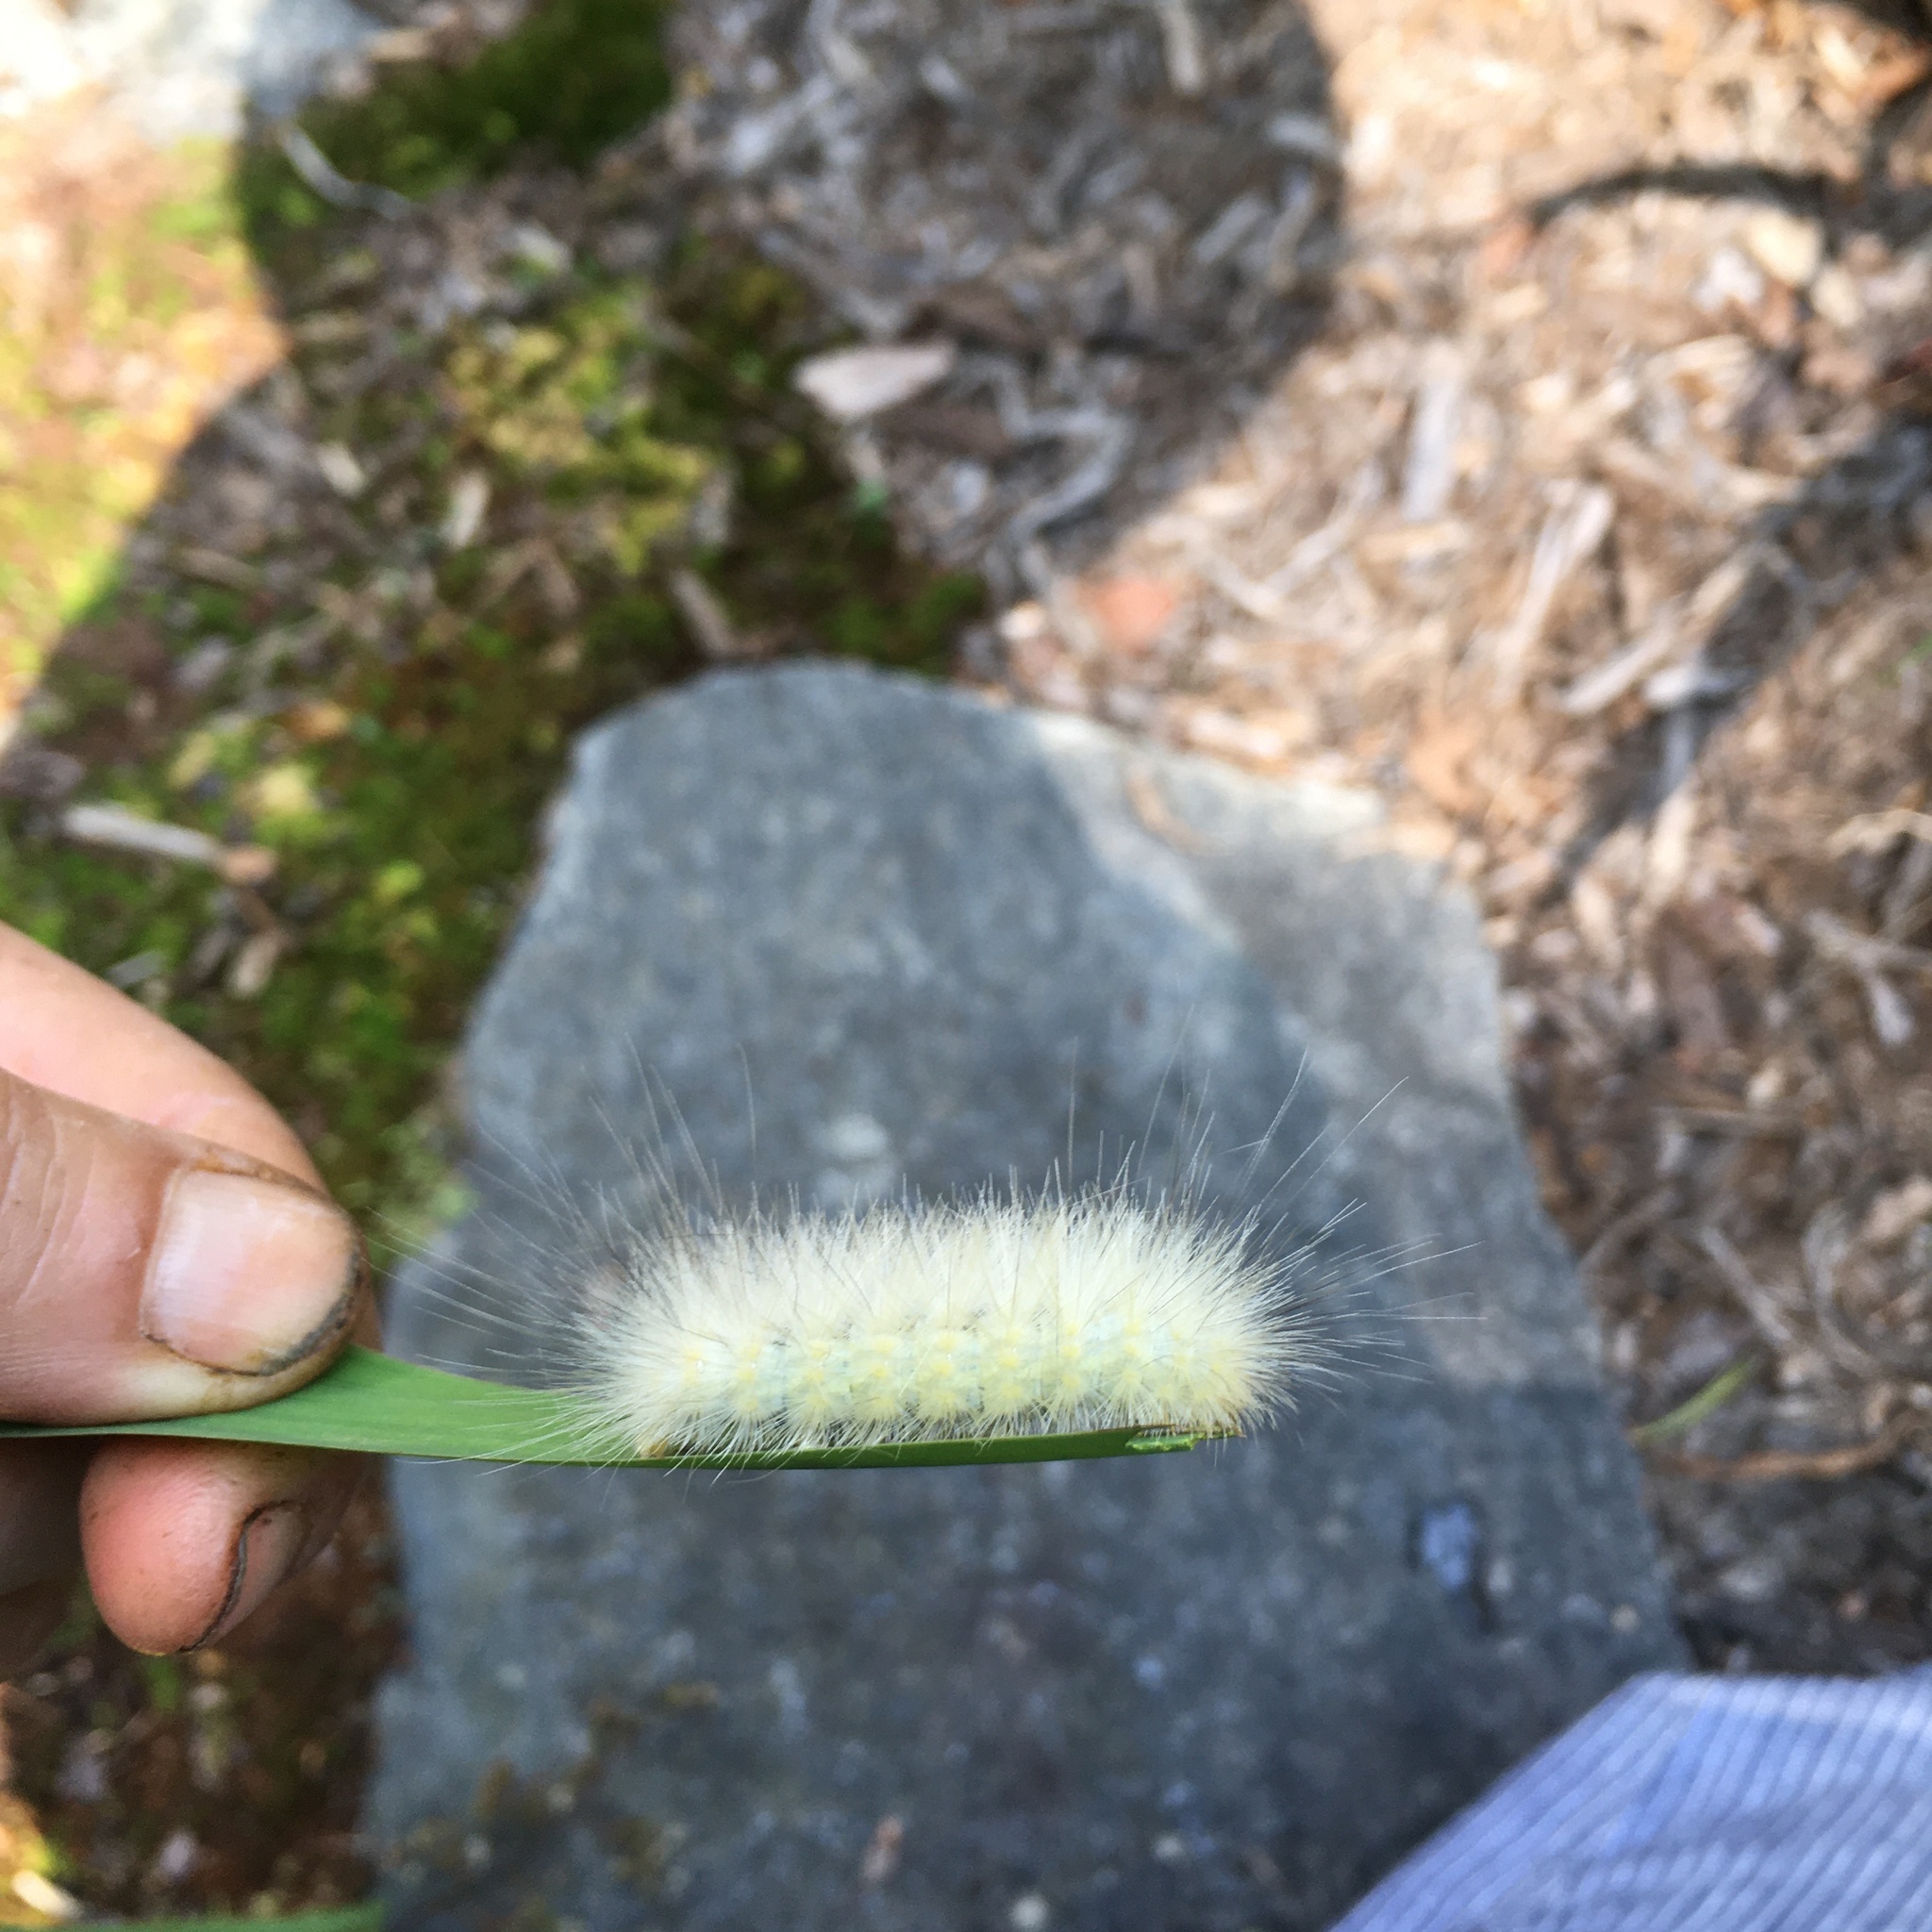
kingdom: Animalia
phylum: Arthropoda
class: Insecta
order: Lepidoptera
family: Erebidae
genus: Spilosoma
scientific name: Spilosoma virginica
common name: Virginia tiger moth
